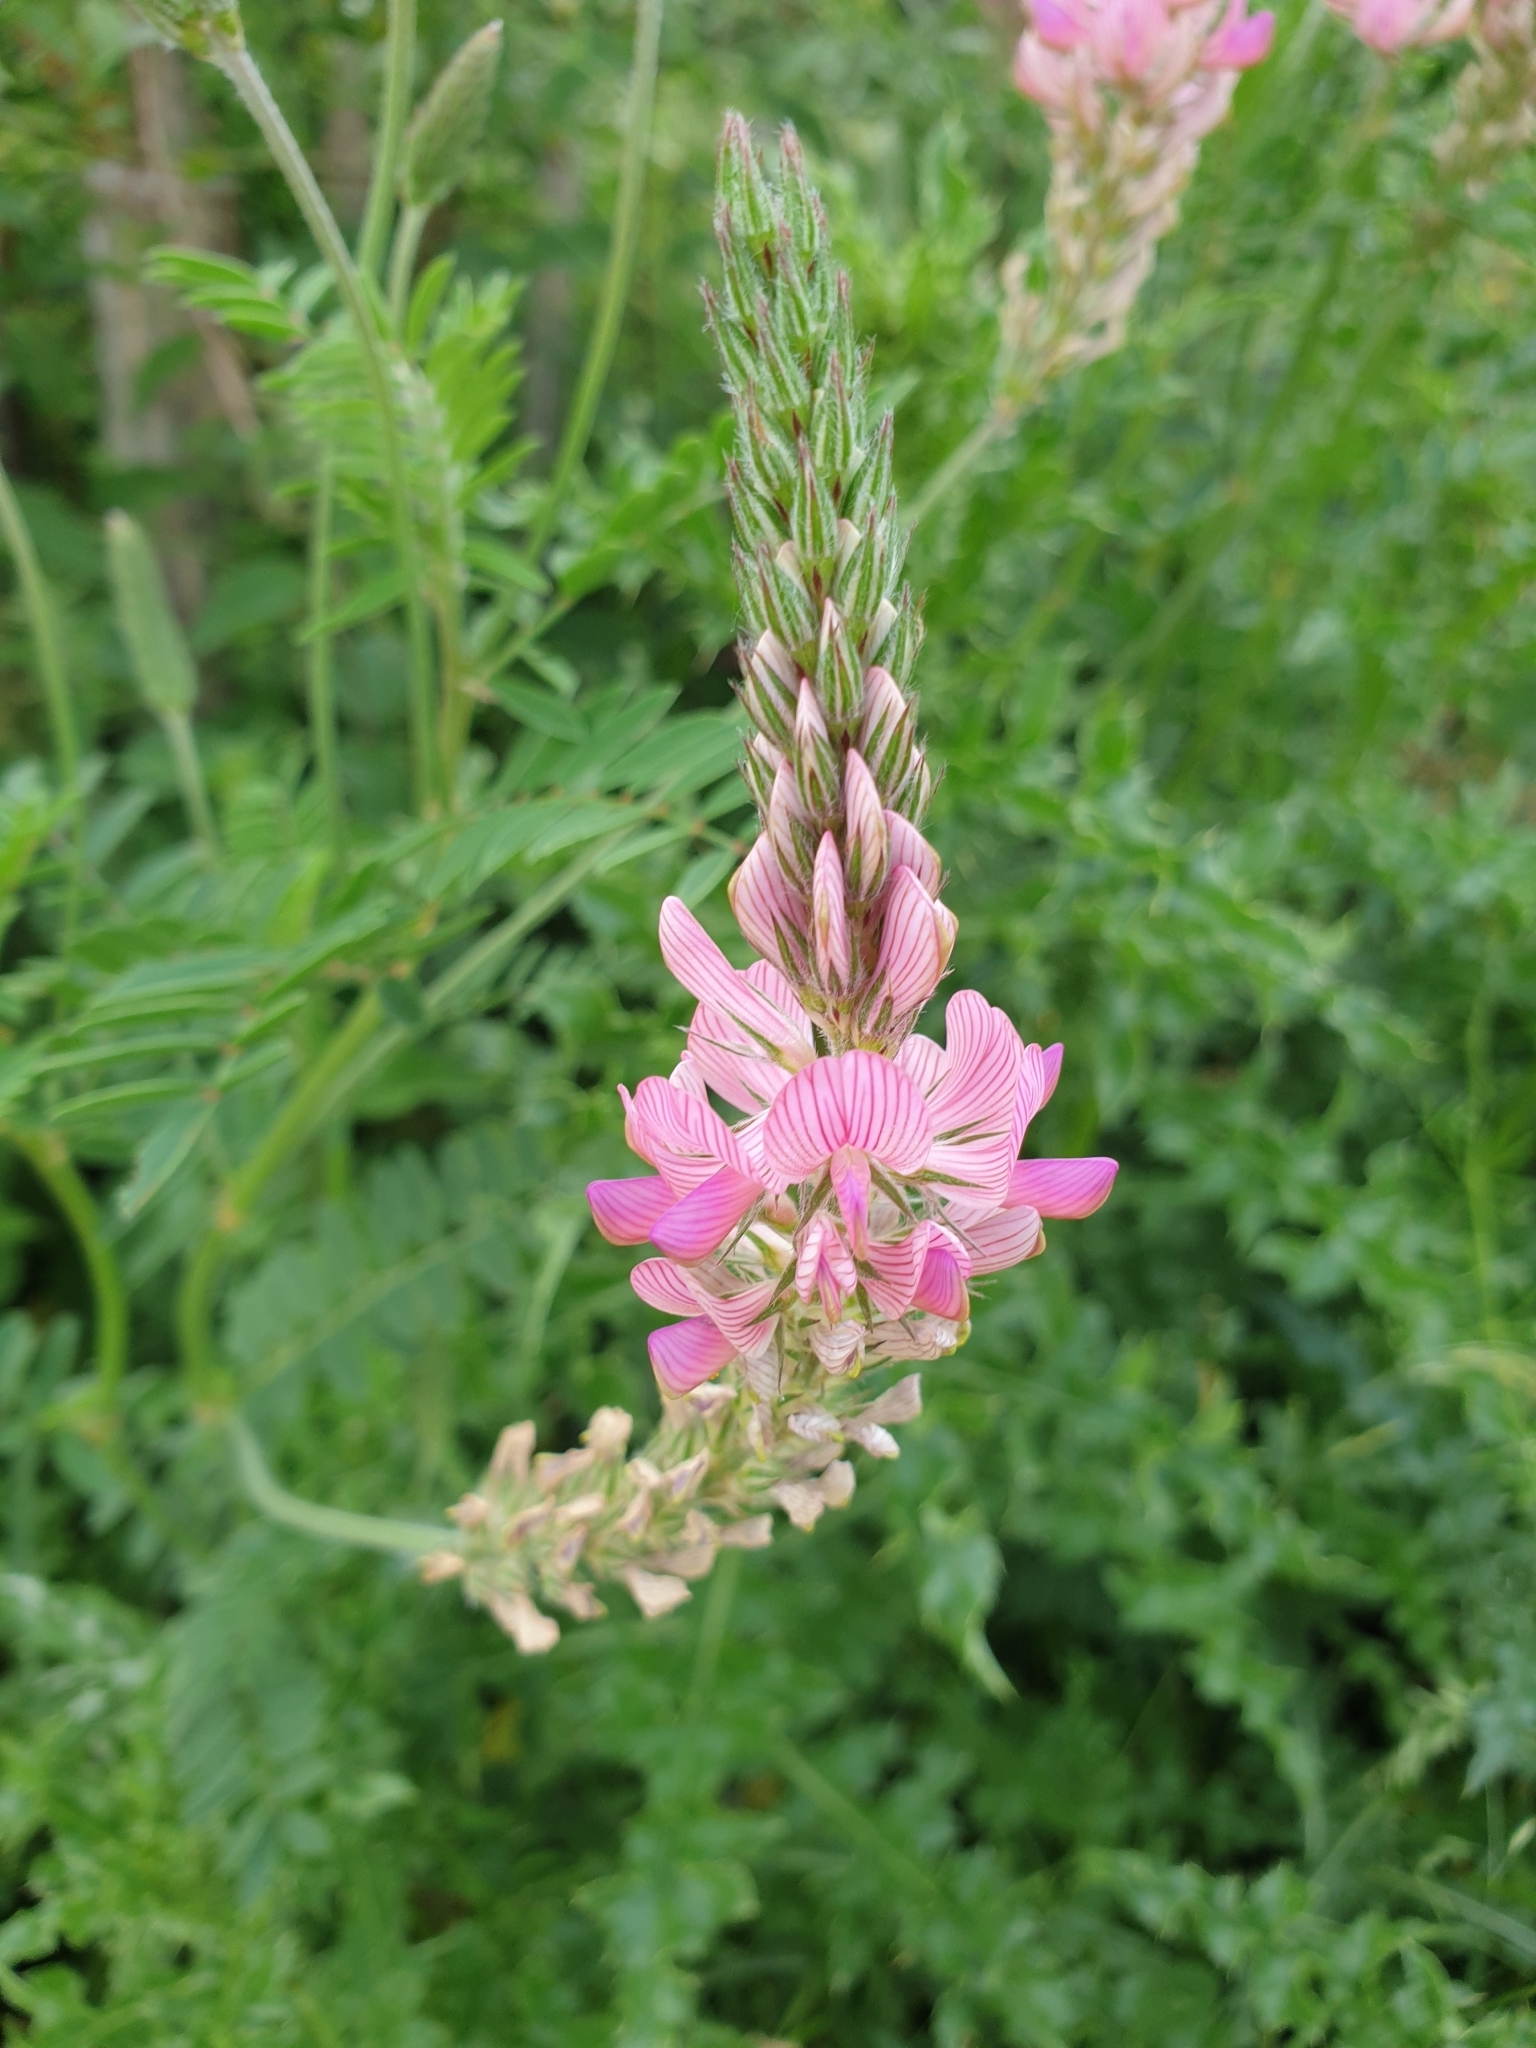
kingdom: Plantae
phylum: Tracheophyta
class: Magnoliopsida
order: Fabales
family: Fabaceae
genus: Onobrychis
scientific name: Onobrychis viciifolia
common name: Sainfoin
